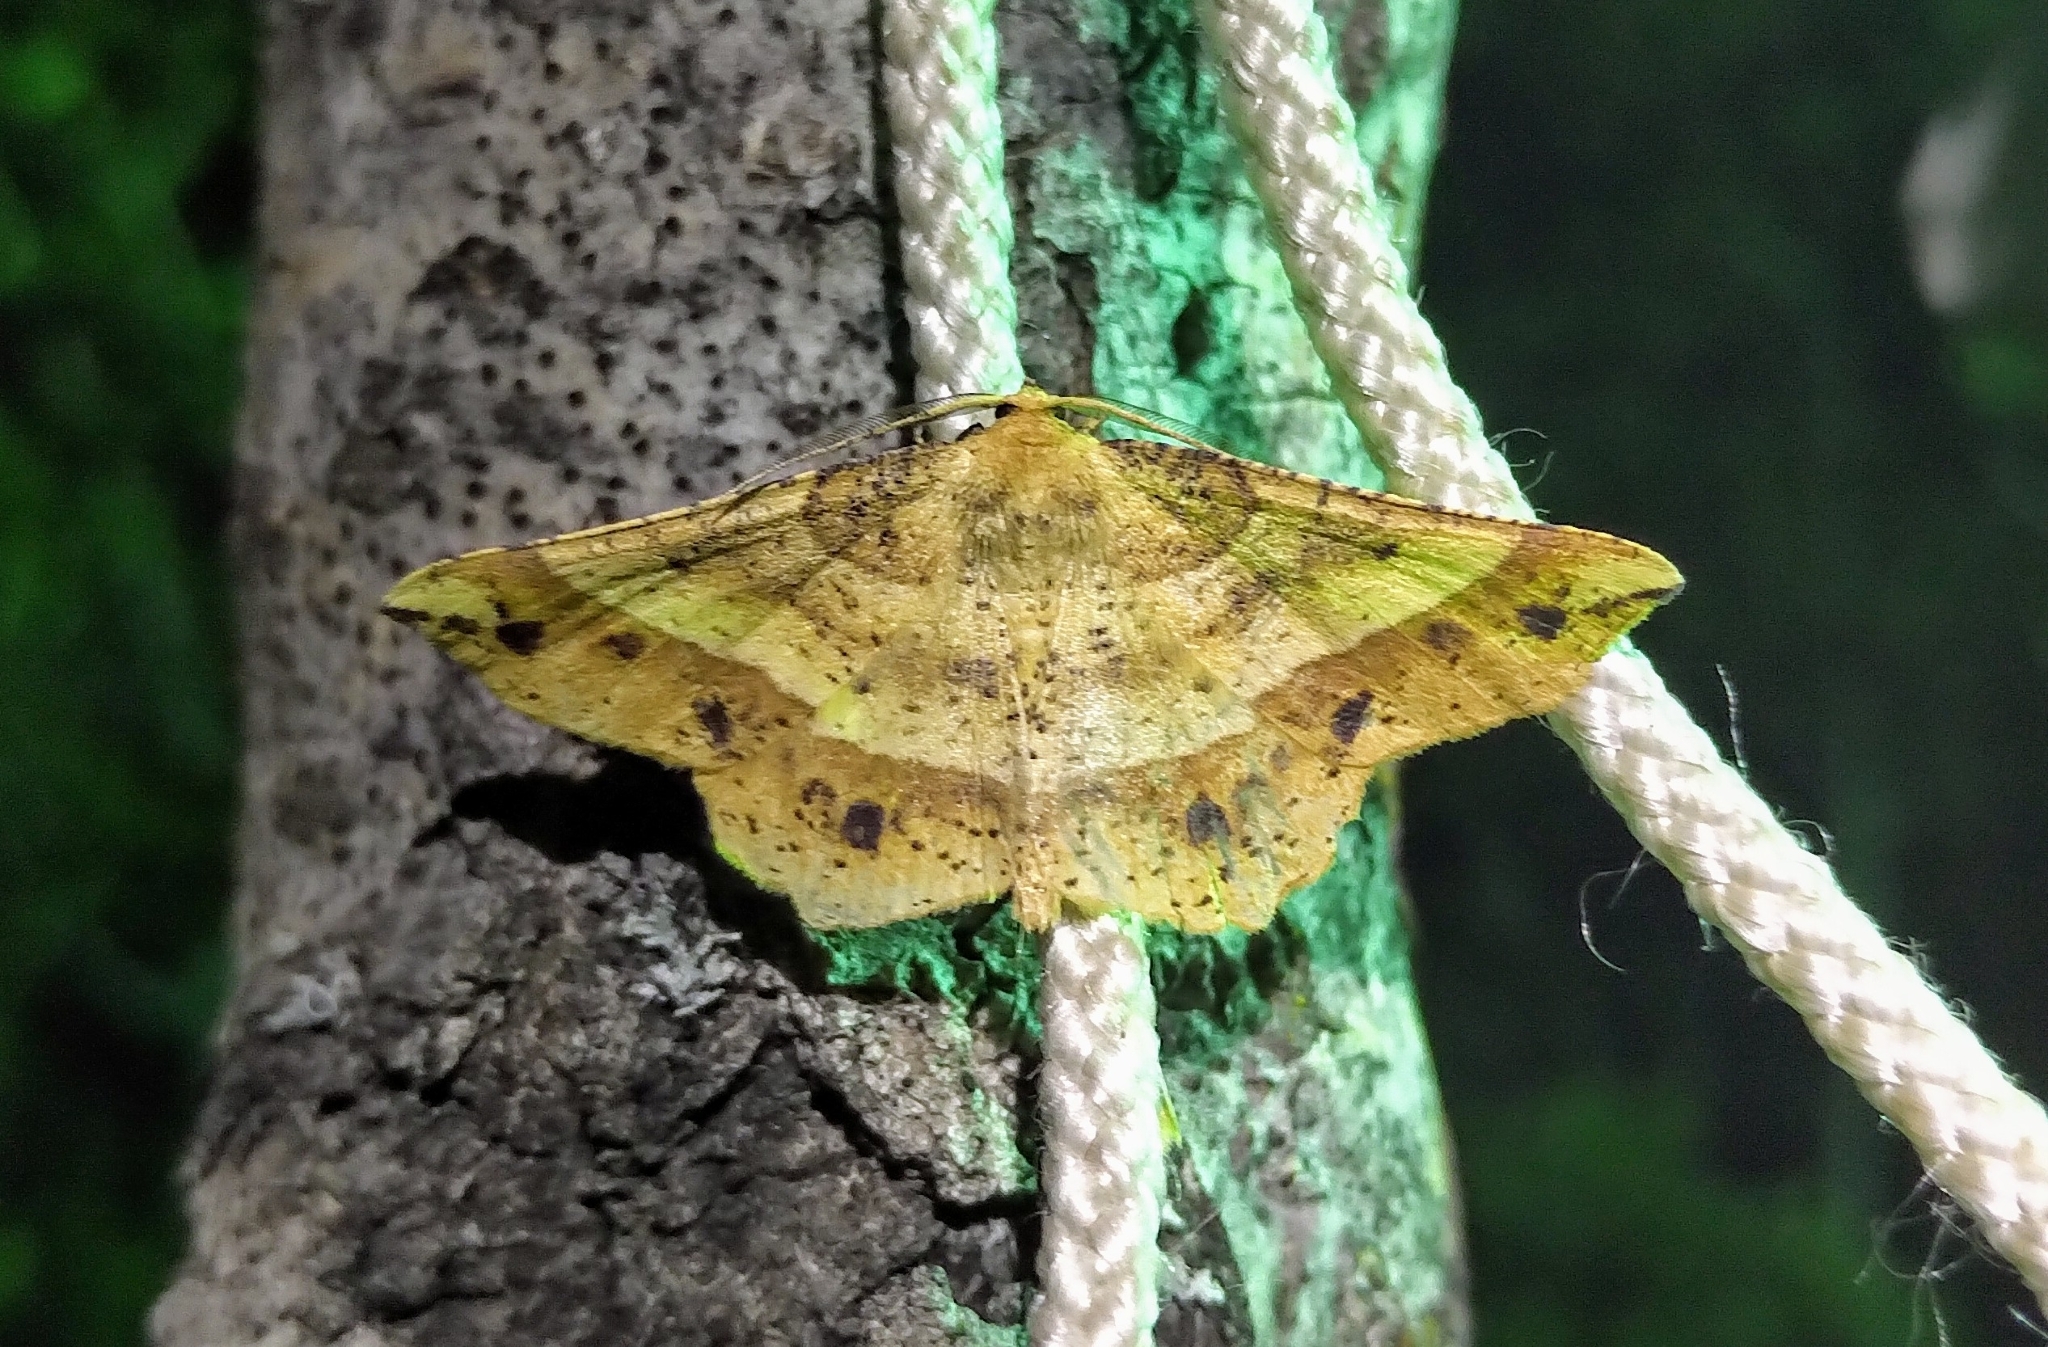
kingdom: Animalia
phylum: Arthropoda
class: Insecta
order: Lepidoptera
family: Geometridae
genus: Euchlaena
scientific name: Euchlaena tigrinaria
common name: Mottled euchlaena moth
